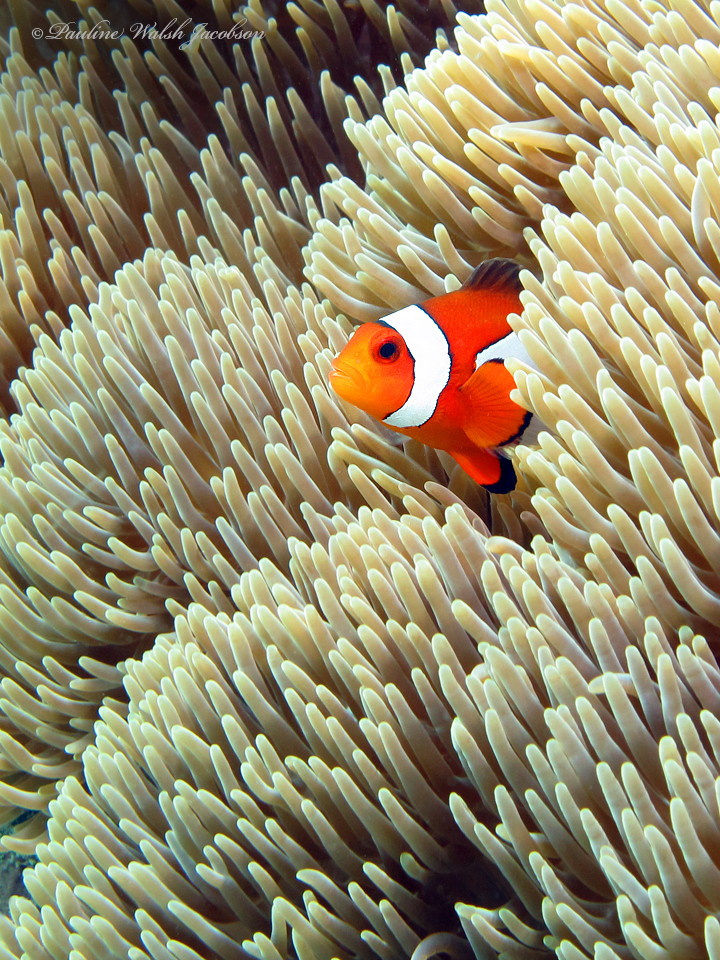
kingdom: Animalia
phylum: Chordata
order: Perciformes
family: Pomacentridae
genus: Amphiprion
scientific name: Amphiprion ocellaris
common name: Clown anemonefish
